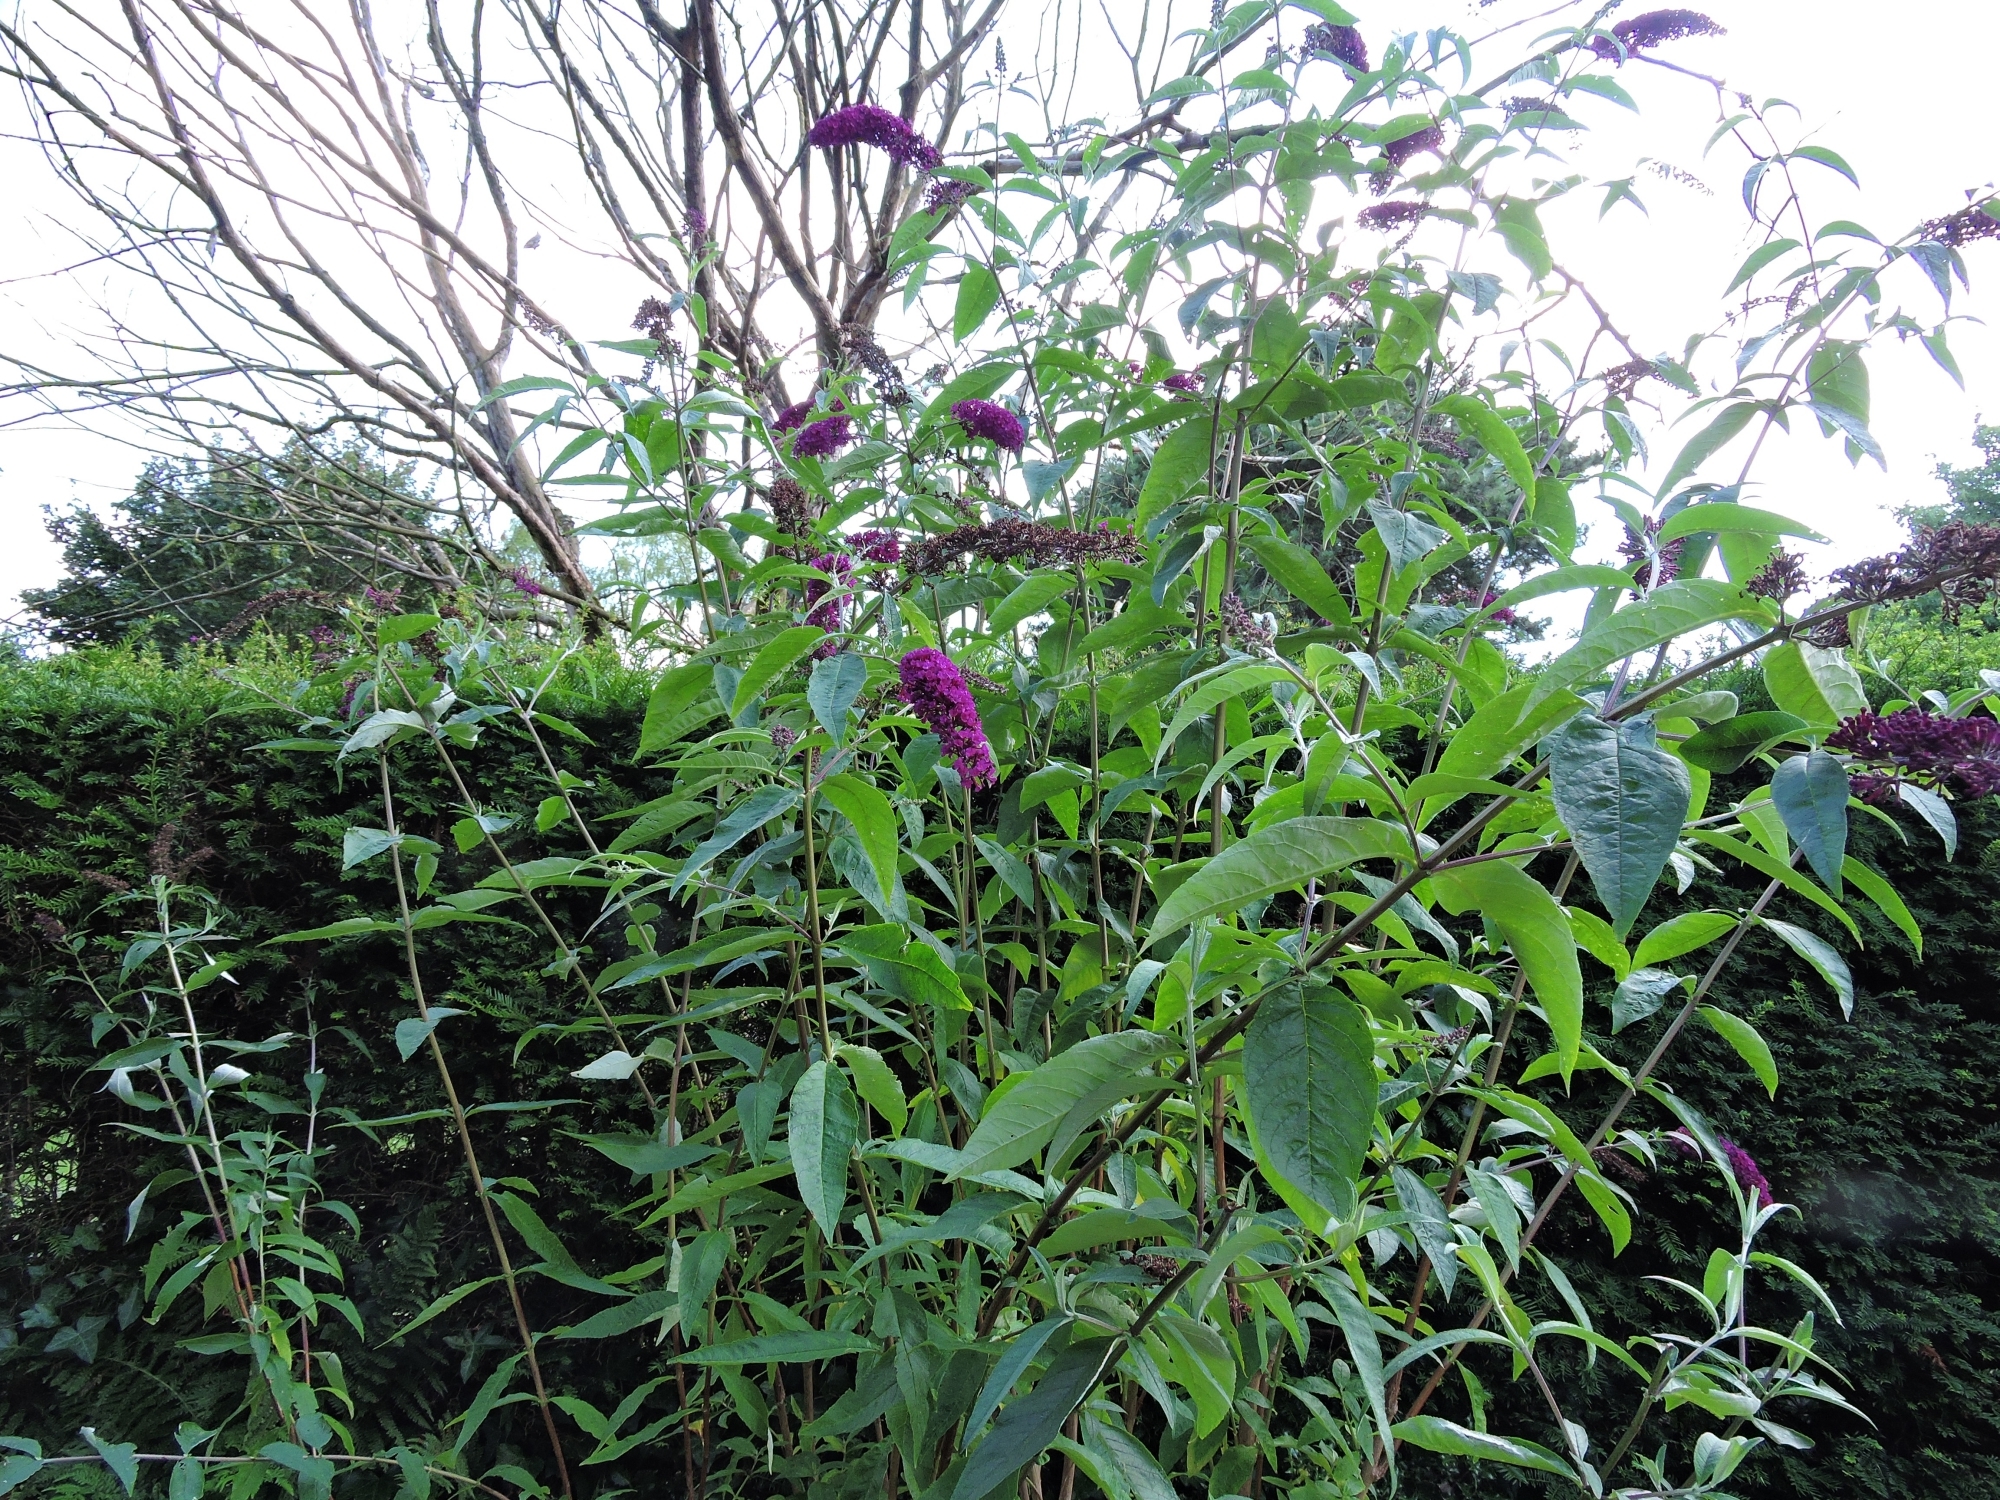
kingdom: Plantae
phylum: Tracheophyta
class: Magnoliopsida
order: Lamiales
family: Scrophulariaceae
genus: Buddleja
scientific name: Buddleja davidii
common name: Butterfly-bush
